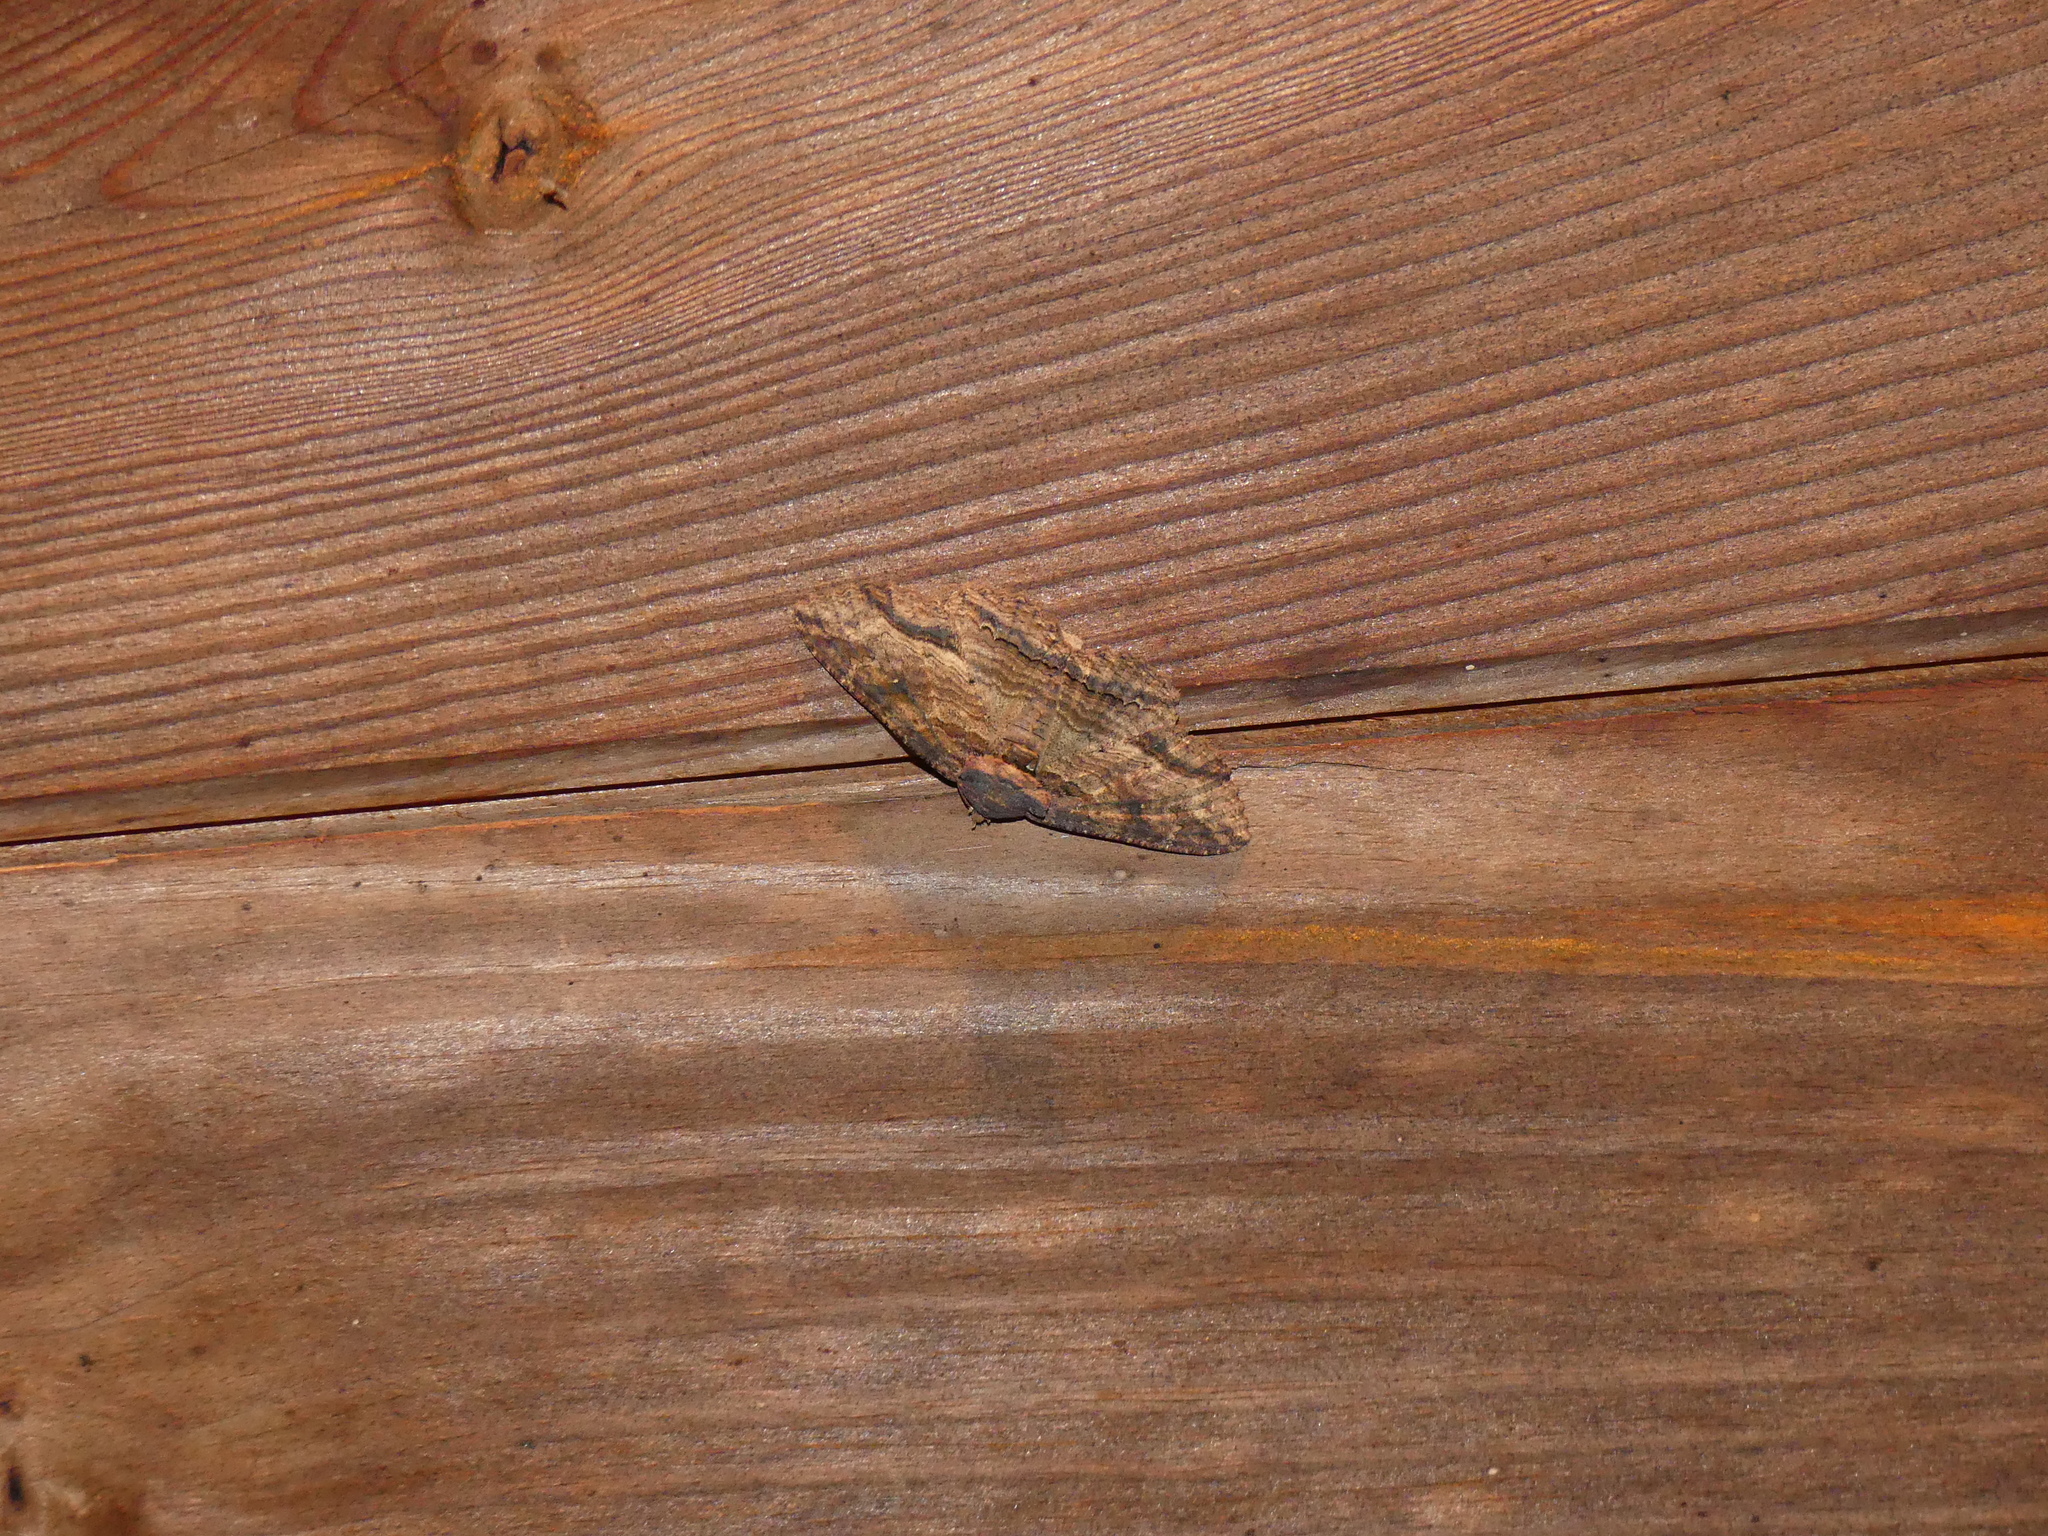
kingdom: Animalia
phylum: Arthropoda
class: Insecta
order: Lepidoptera
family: Erebidae
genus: Zale
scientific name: Zale lunata
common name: Lunate zale moth
